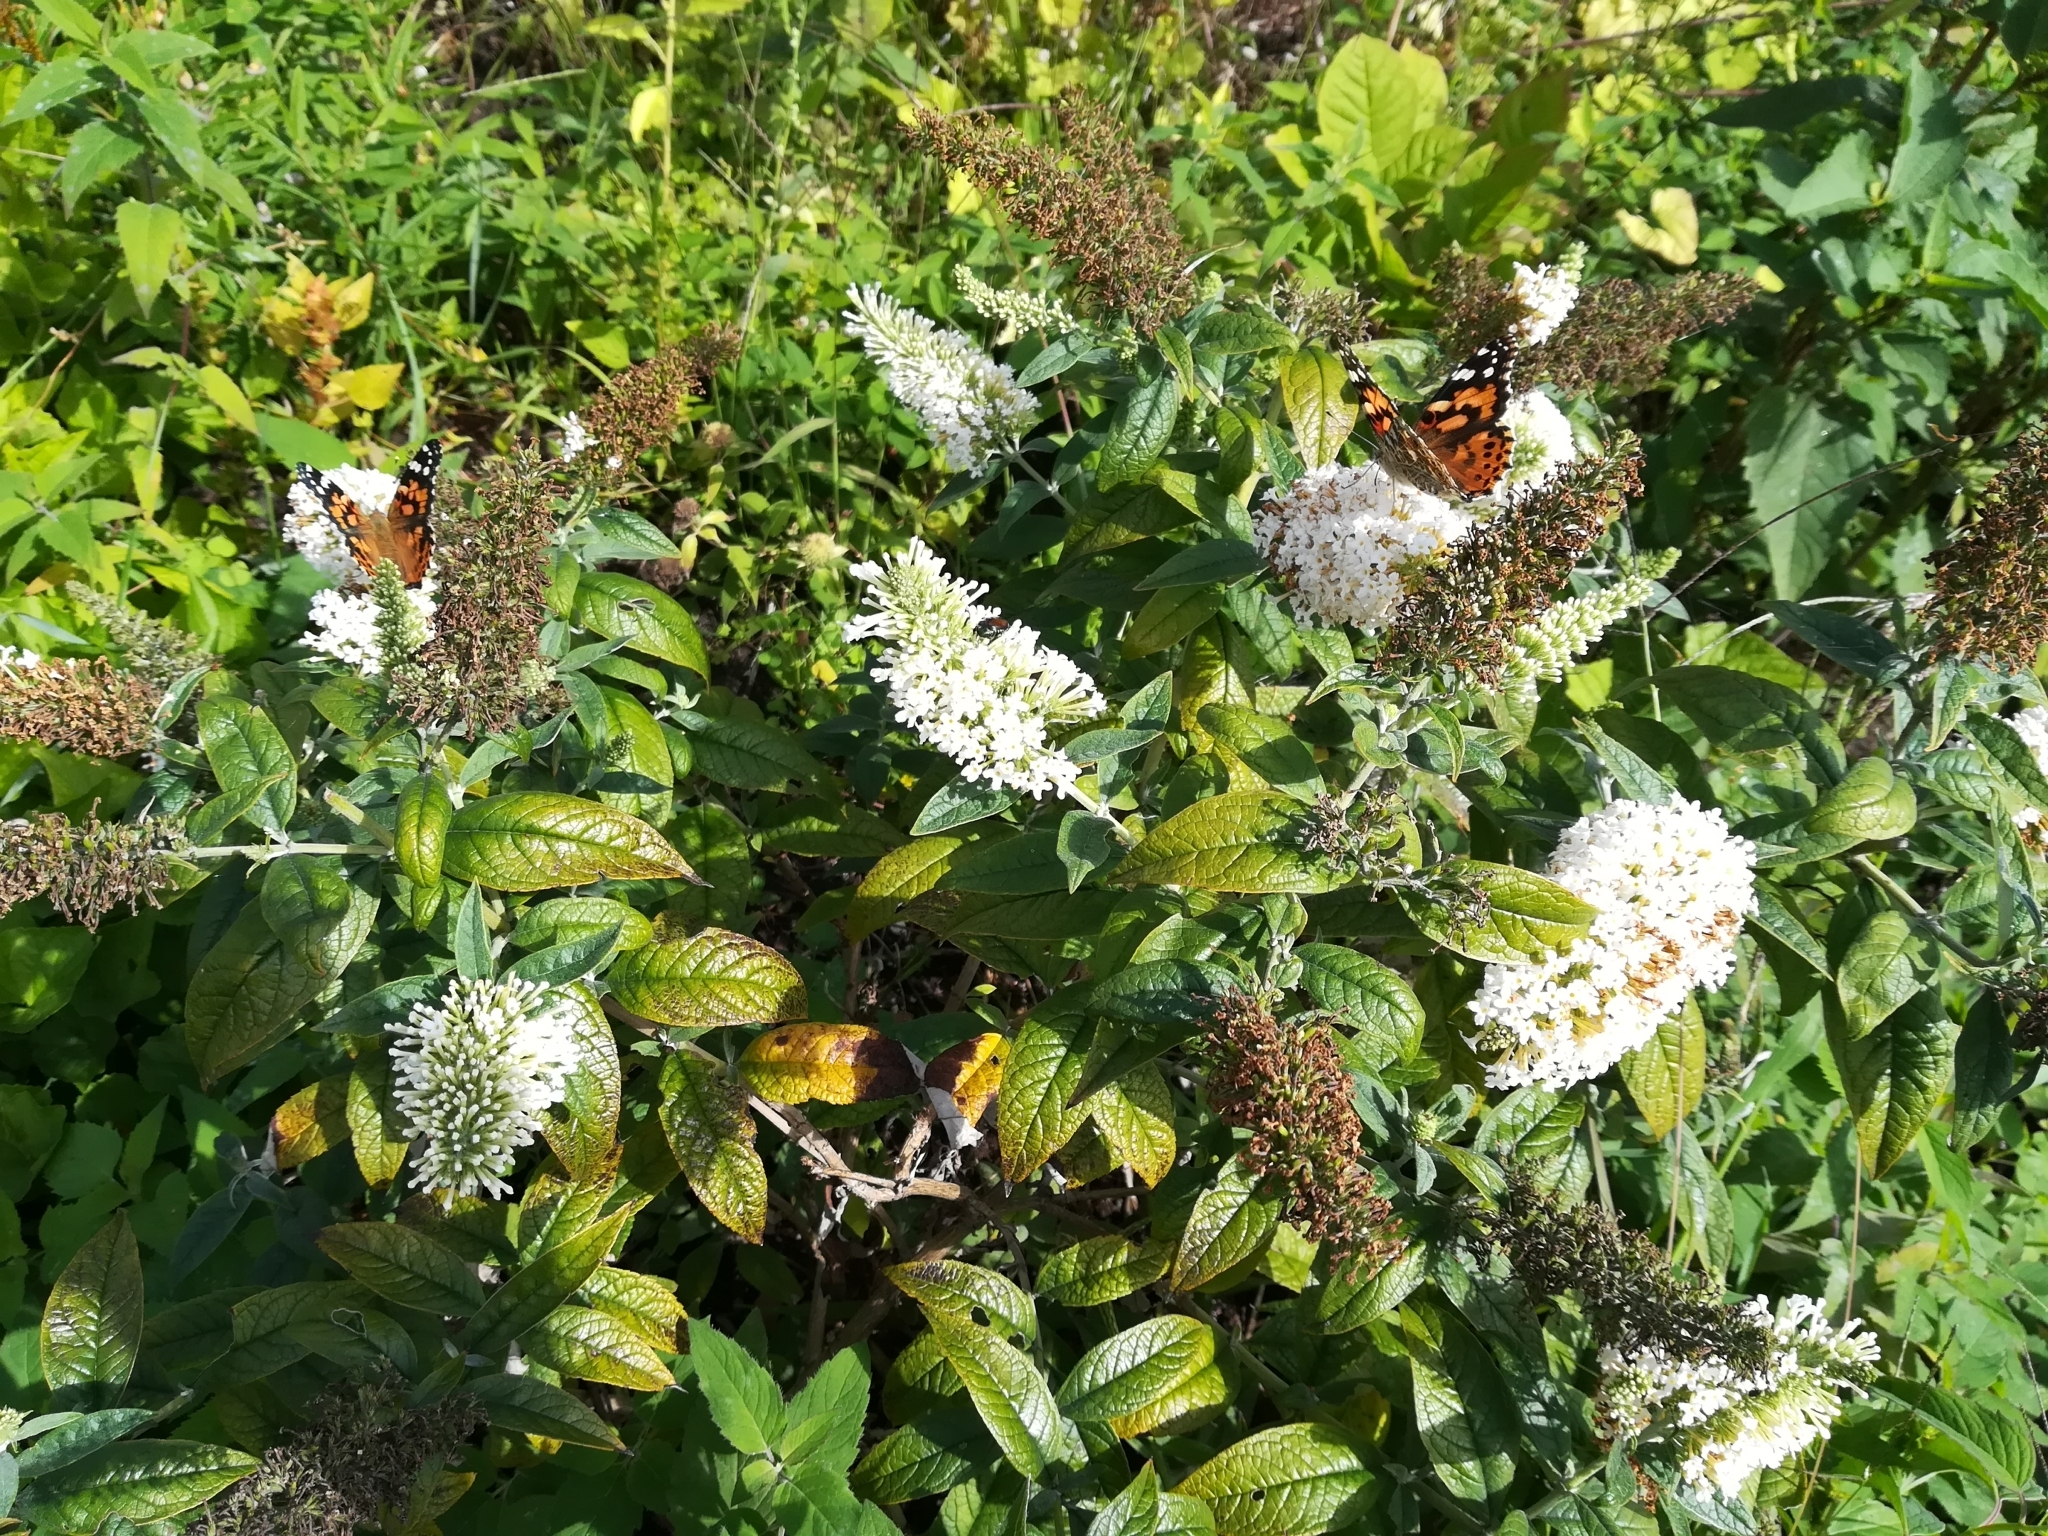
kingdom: Animalia
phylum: Arthropoda
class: Insecta
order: Lepidoptera
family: Nymphalidae
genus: Vanessa
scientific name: Vanessa cardui
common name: Painted lady
